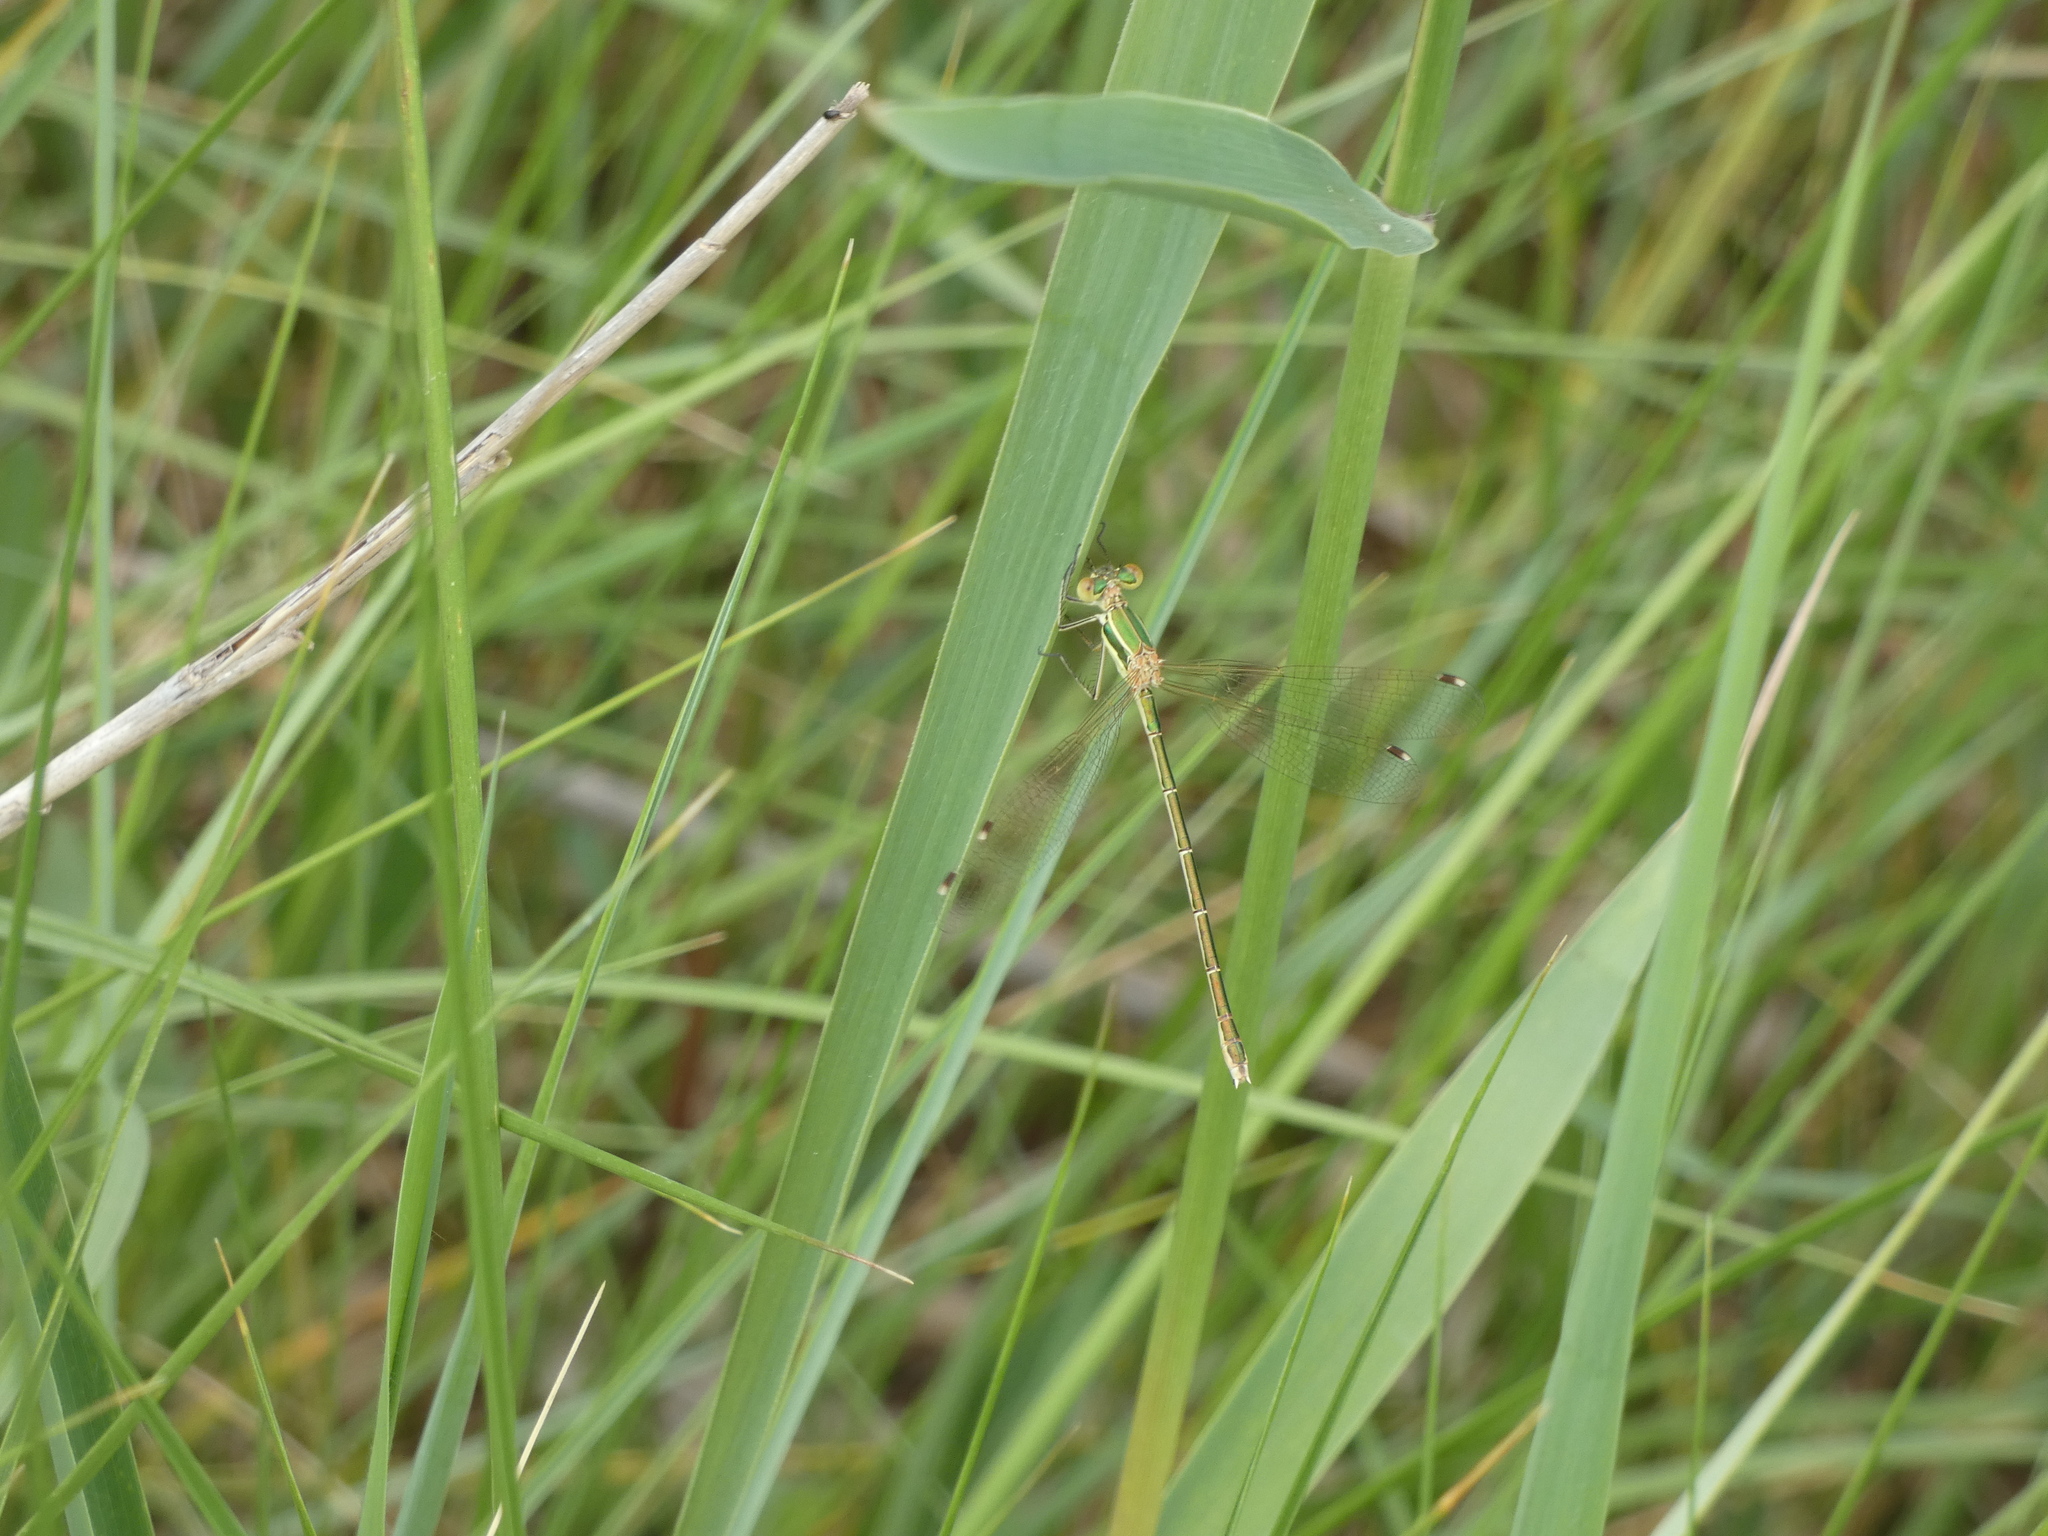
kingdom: Animalia
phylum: Arthropoda
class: Insecta
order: Odonata
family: Lestidae
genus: Lestes
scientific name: Lestes barbarus
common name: Migrant spreadwing
